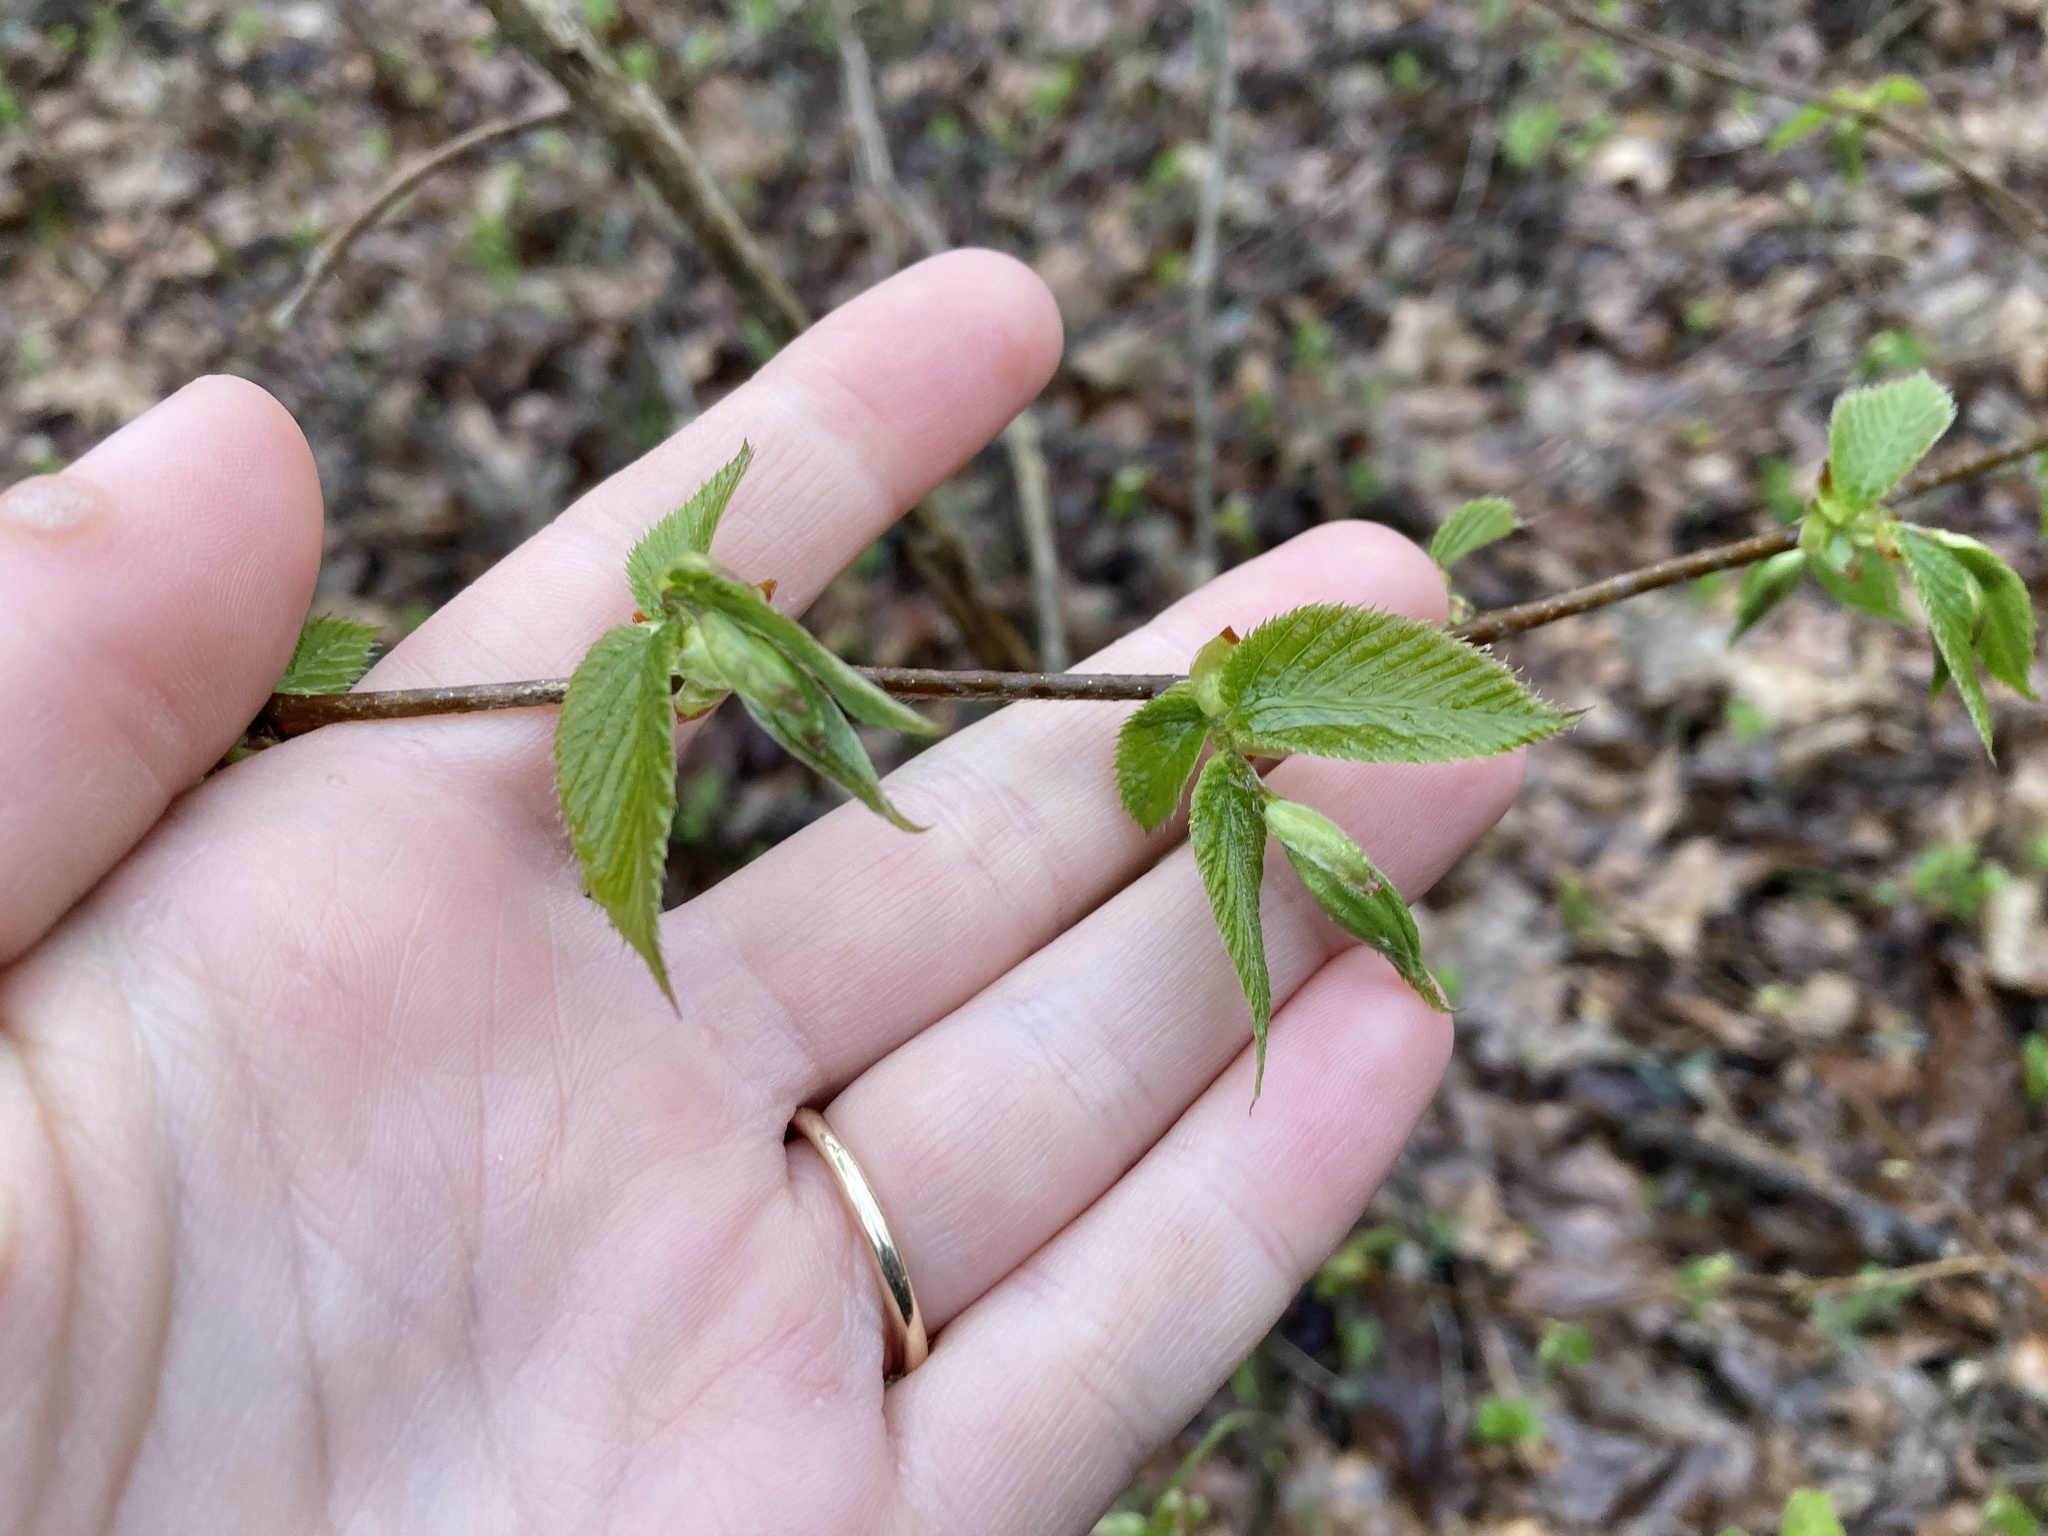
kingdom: Plantae
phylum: Tracheophyta
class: Magnoliopsida
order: Fagales
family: Betulaceae
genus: Ostrya
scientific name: Ostrya virginiana
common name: Ironwood
